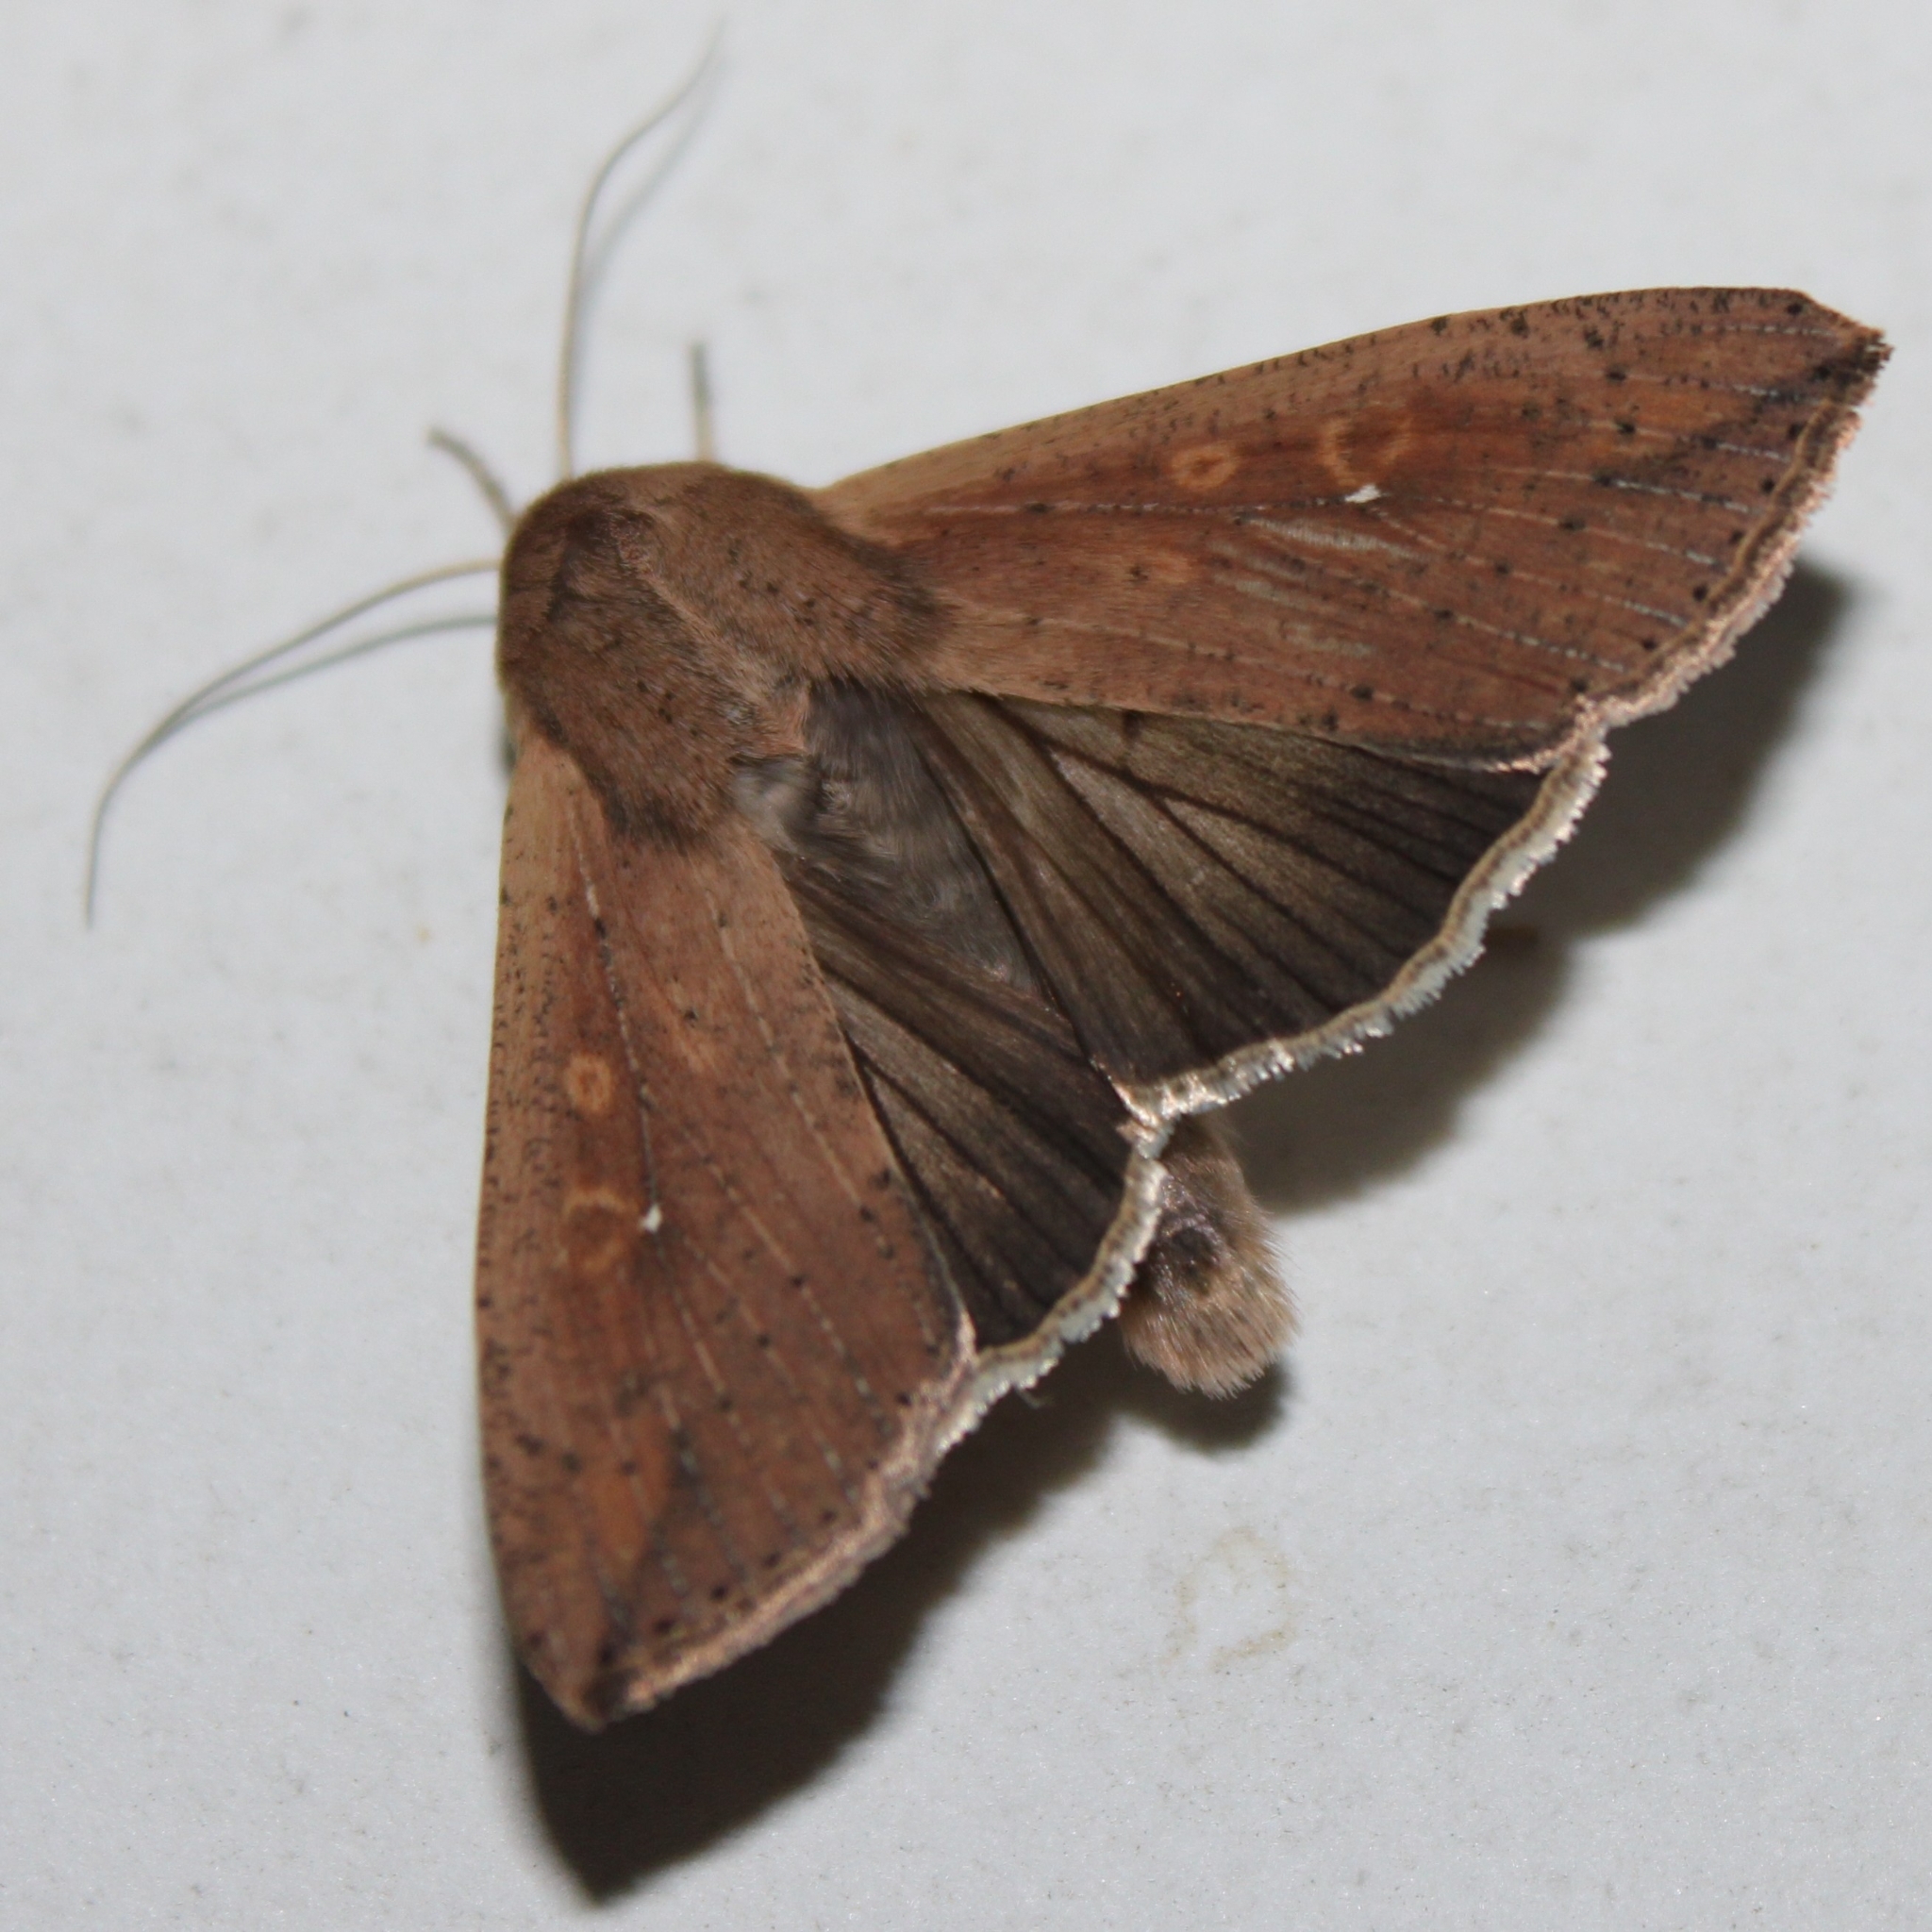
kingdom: Animalia
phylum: Arthropoda
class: Insecta
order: Lepidoptera
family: Noctuidae
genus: Mythimna
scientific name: Mythimna unipuncta
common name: White-speck
